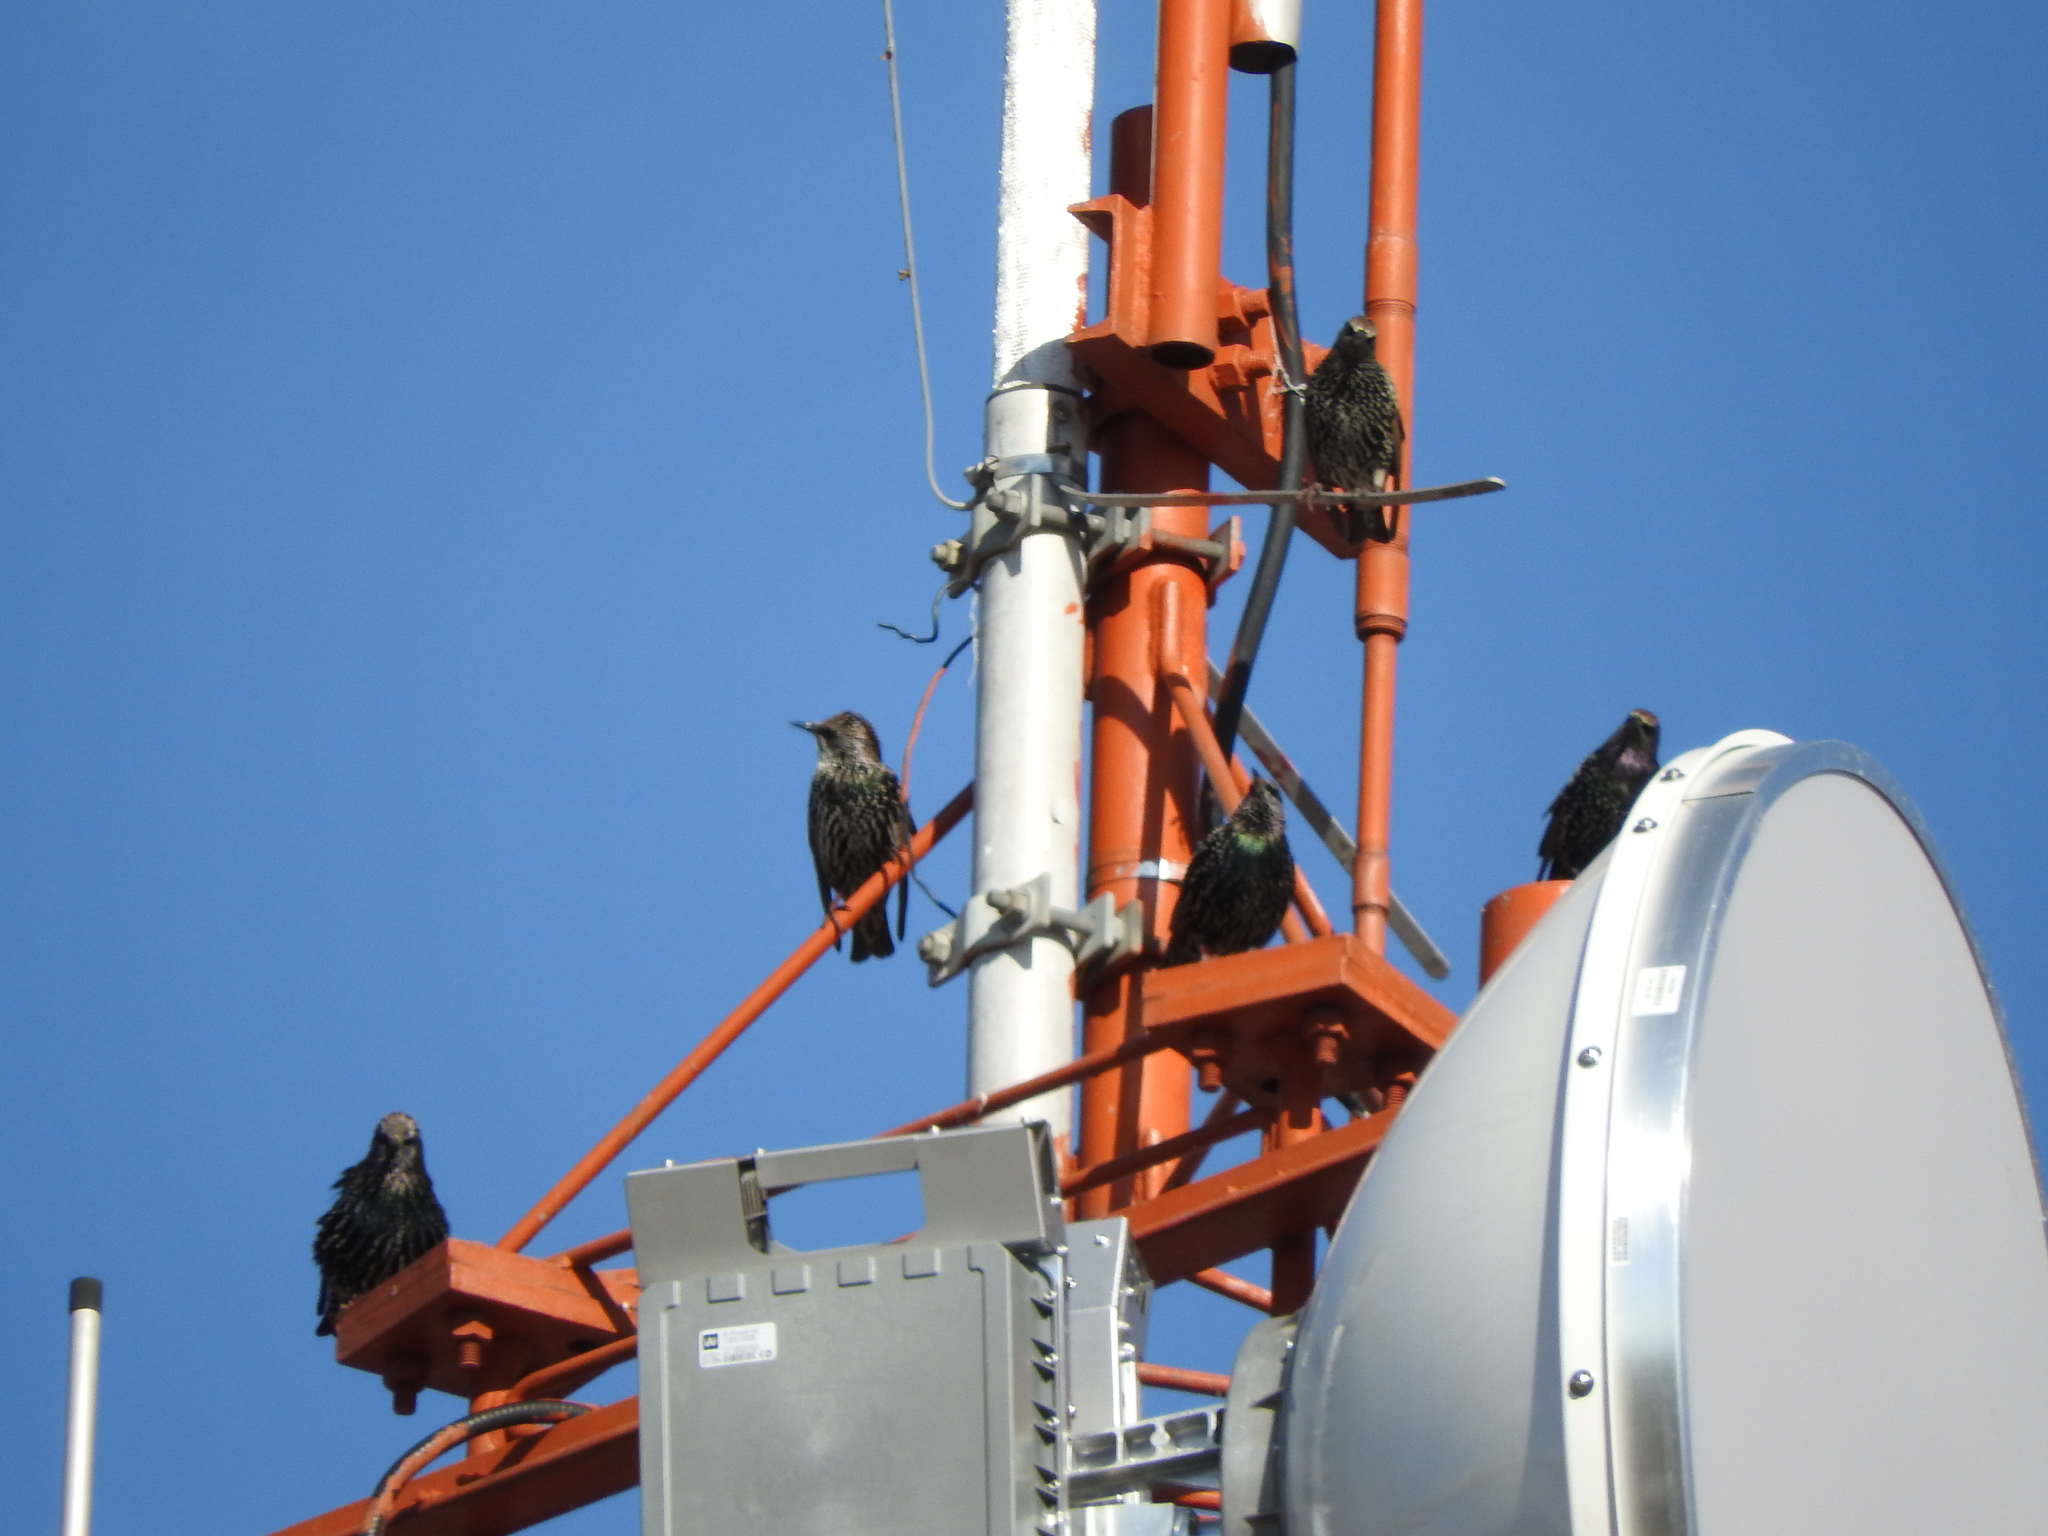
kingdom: Animalia
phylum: Chordata
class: Aves
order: Passeriformes
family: Sturnidae
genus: Sturnus
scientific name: Sturnus vulgaris
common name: Common starling
